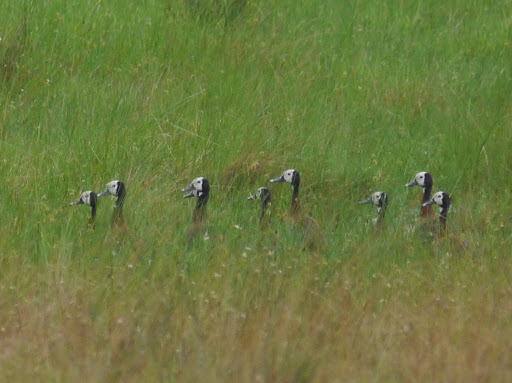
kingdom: Animalia
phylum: Chordata
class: Aves
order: Anseriformes
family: Anatidae
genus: Dendrocygna
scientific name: Dendrocygna viduata
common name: White-faced whistling duck
